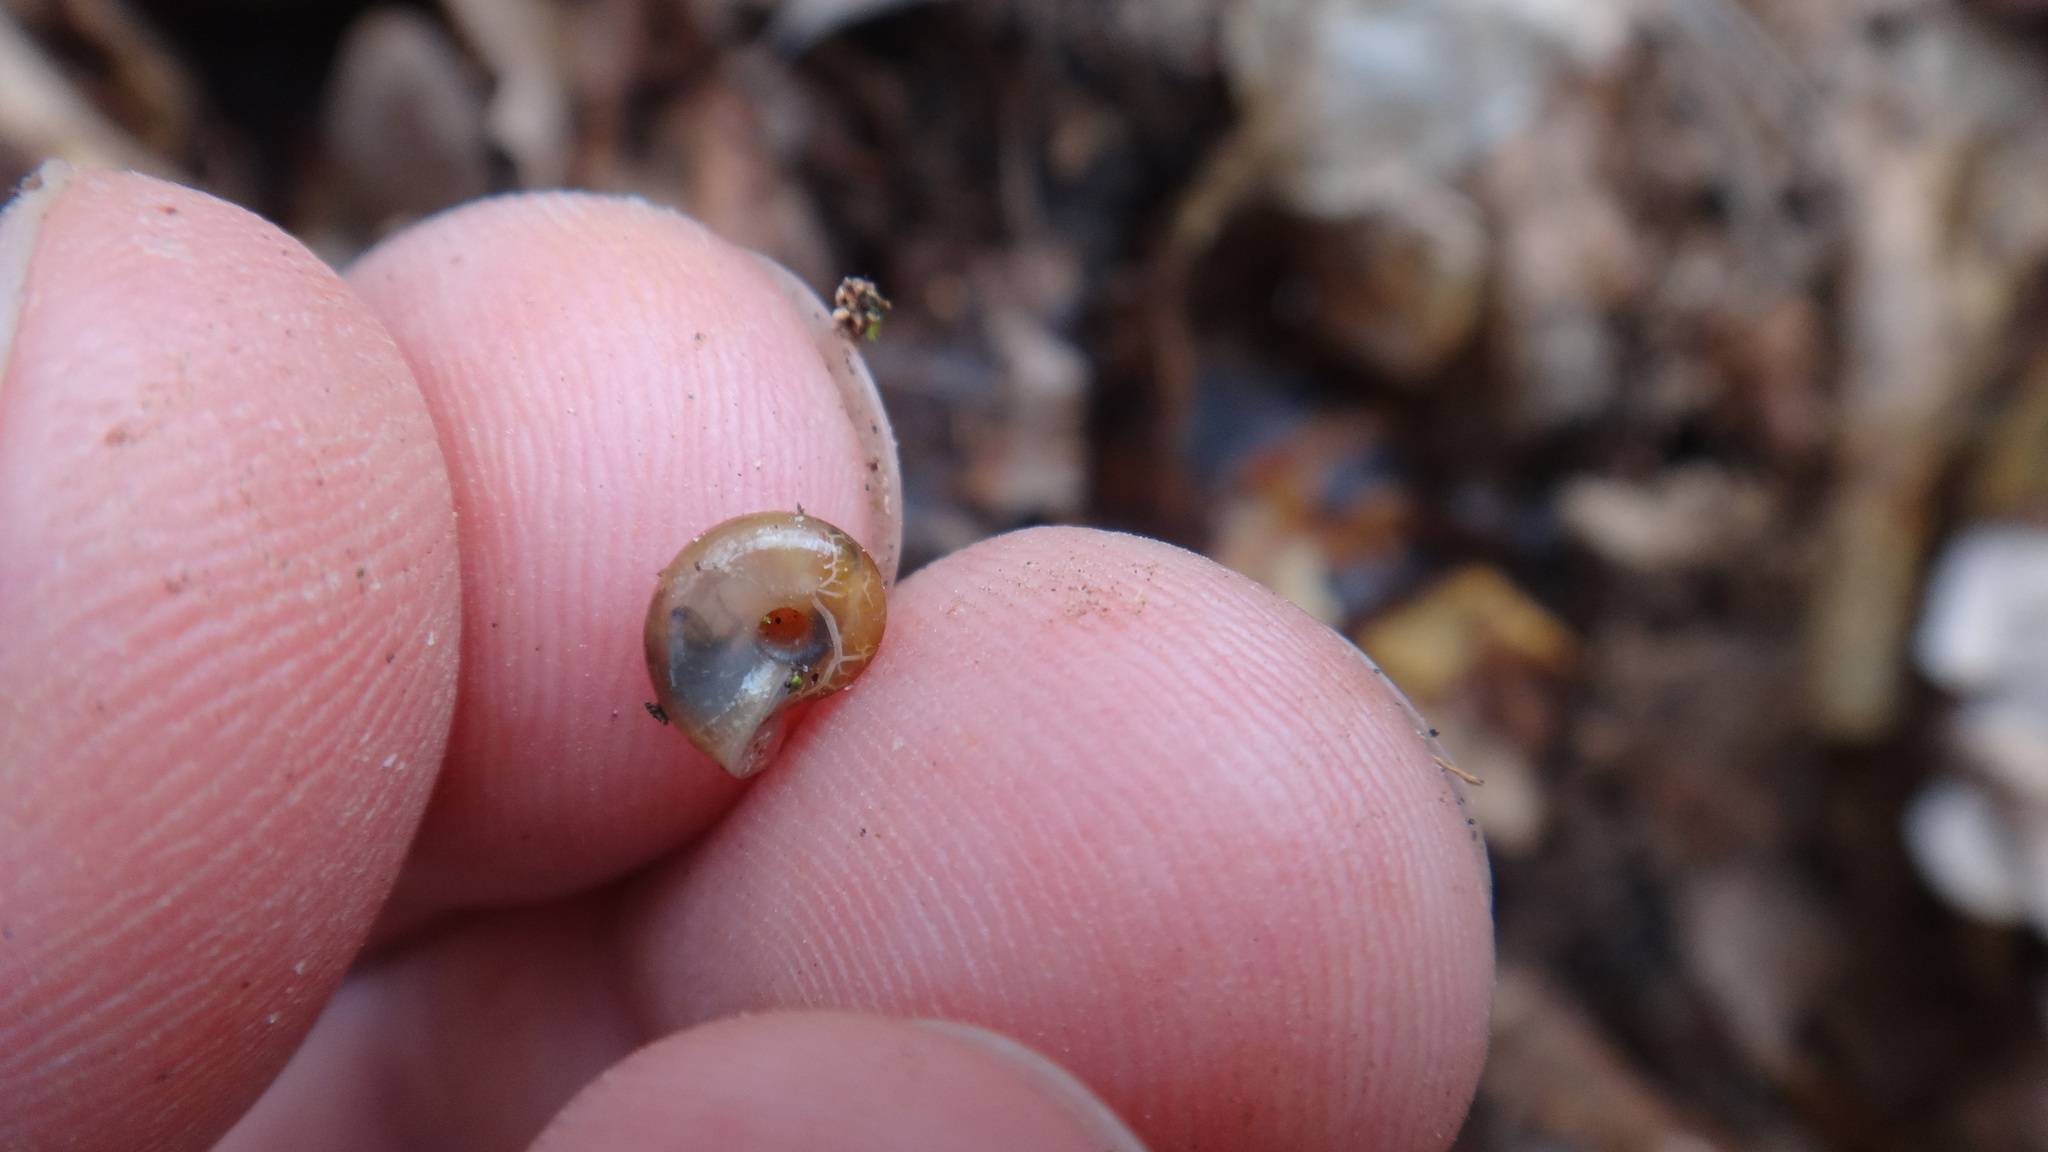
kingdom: Animalia
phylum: Mollusca
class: Gastropoda
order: Stylommatophora
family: Gastrodontidae
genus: Aegopinella
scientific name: Aegopinella minor
